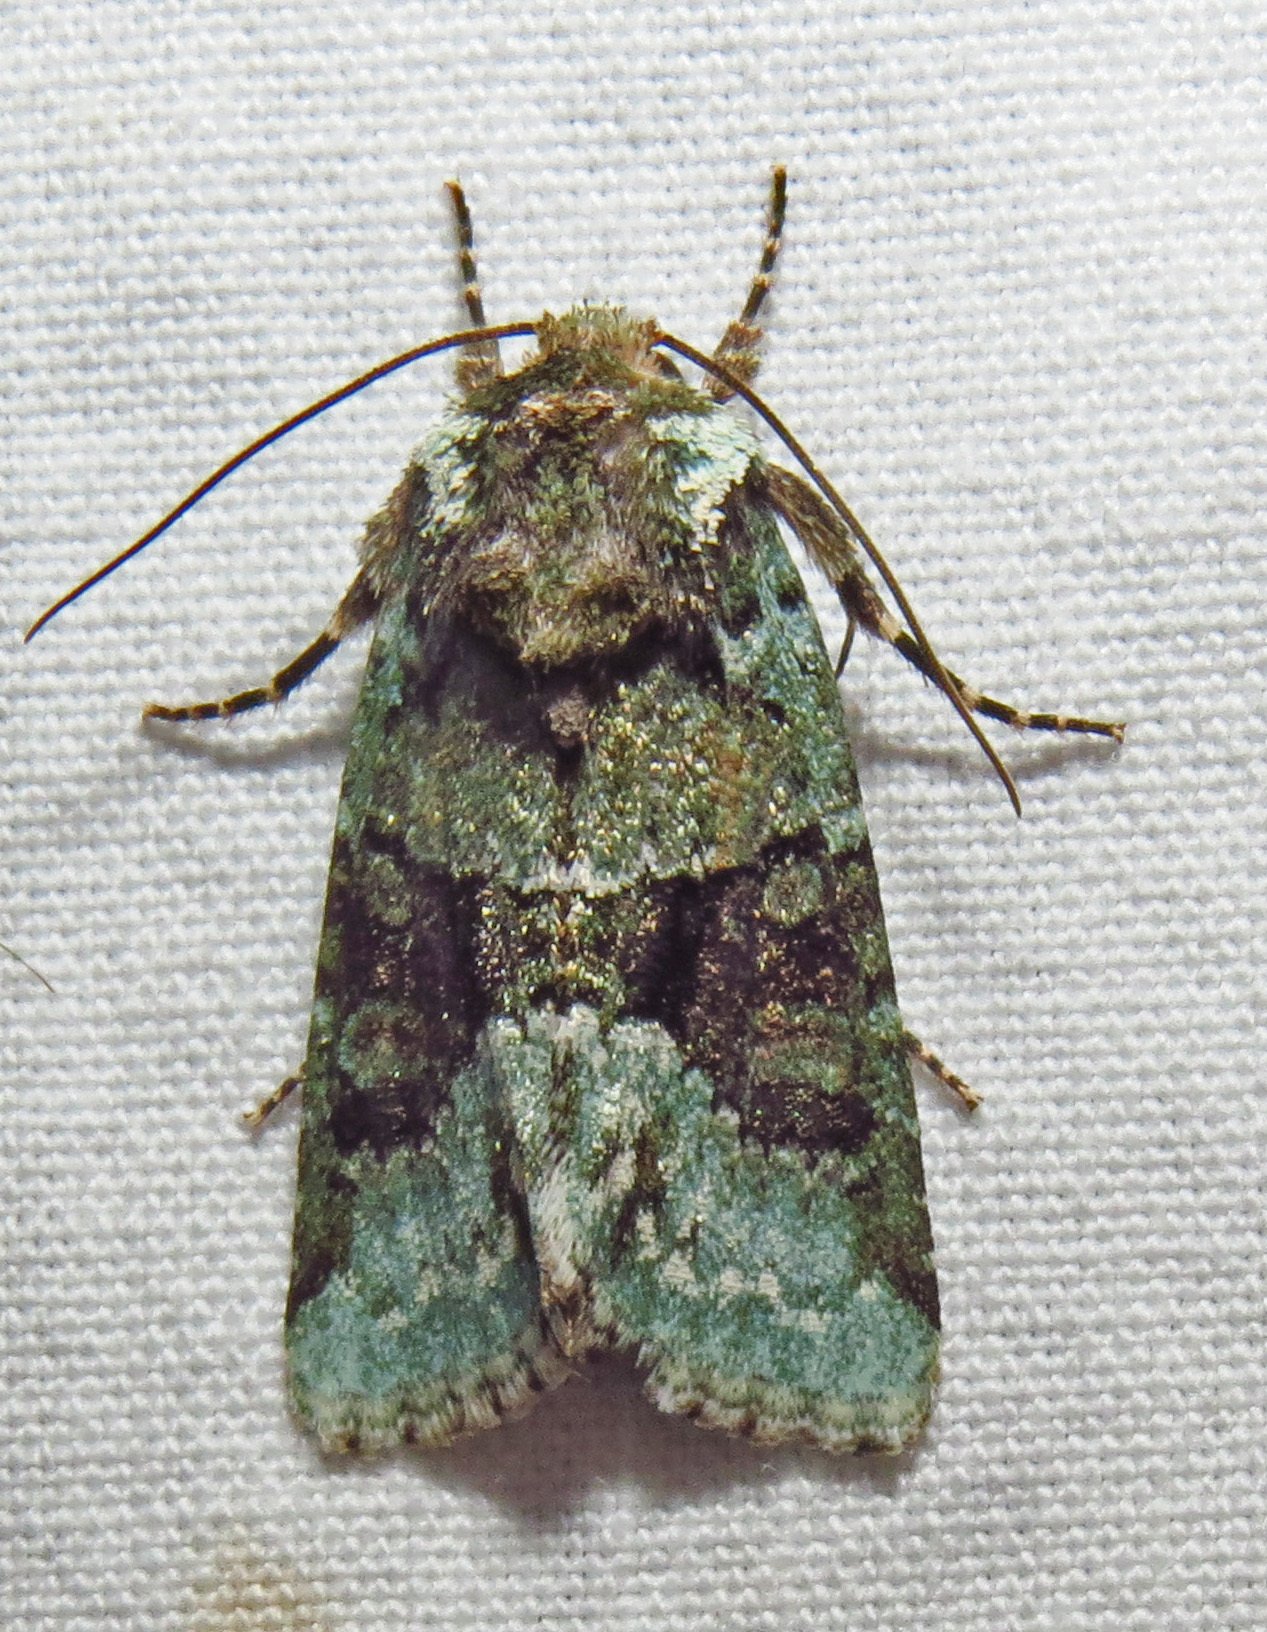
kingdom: Animalia
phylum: Arthropoda
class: Insecta
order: Lepidoptera
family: Noctuidae
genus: Lacinipolia
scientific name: Lacinipolia explicata
